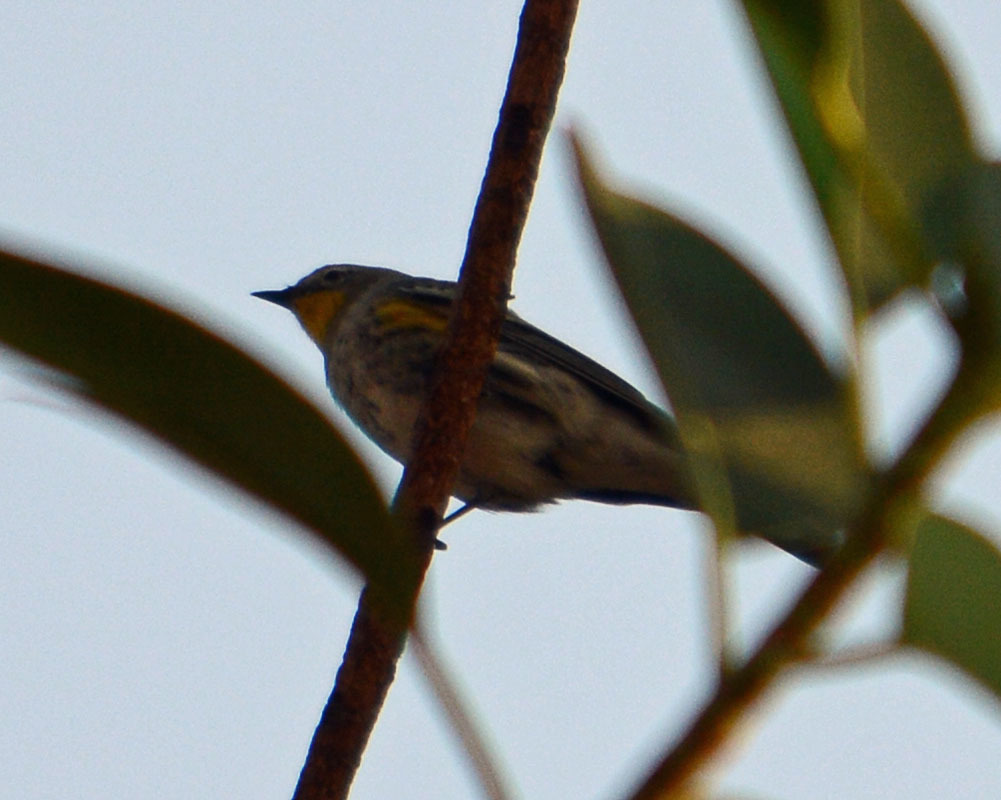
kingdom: Animalia
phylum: Chordata
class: Aves
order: Passeriformes
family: Parulidae
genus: Setophaga
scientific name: Setophaga coronata
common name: Myrtle warbler
